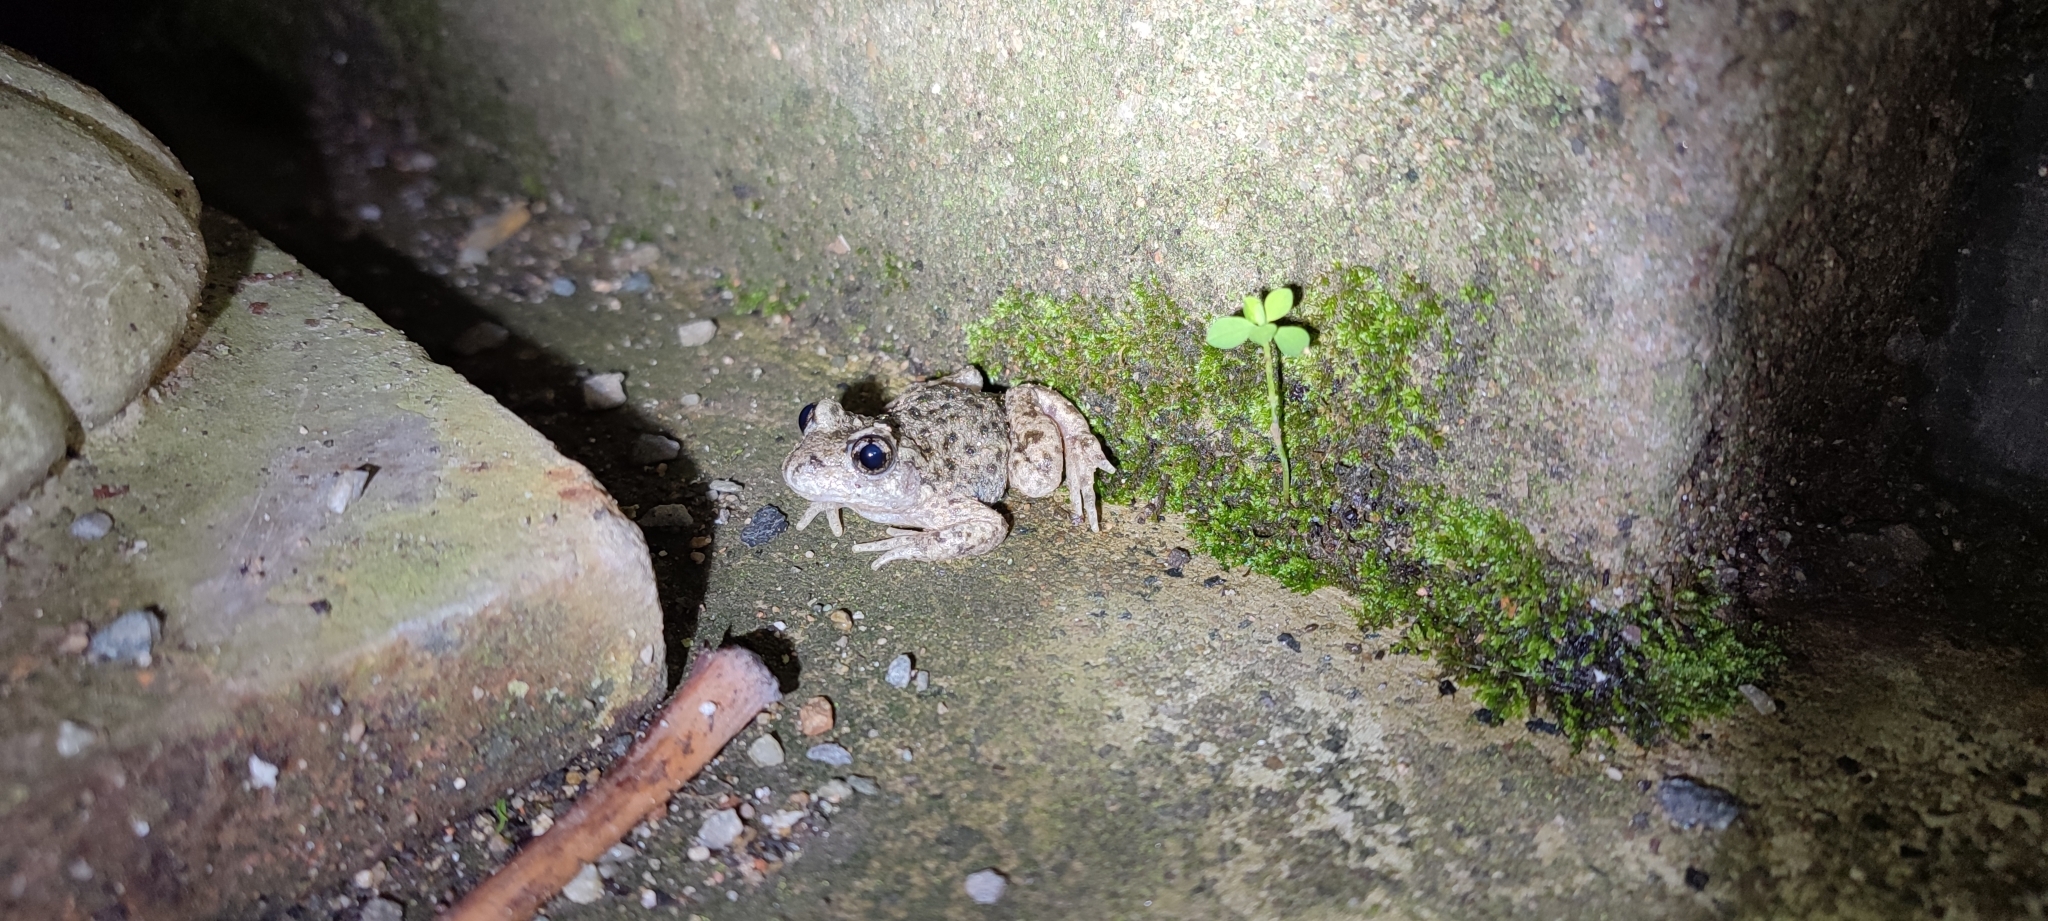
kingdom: Animalia
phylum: Chordata
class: Amphibia
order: Anura
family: Alytidae
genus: Alytes
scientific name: Alytes obstetricans
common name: Midwife toad
